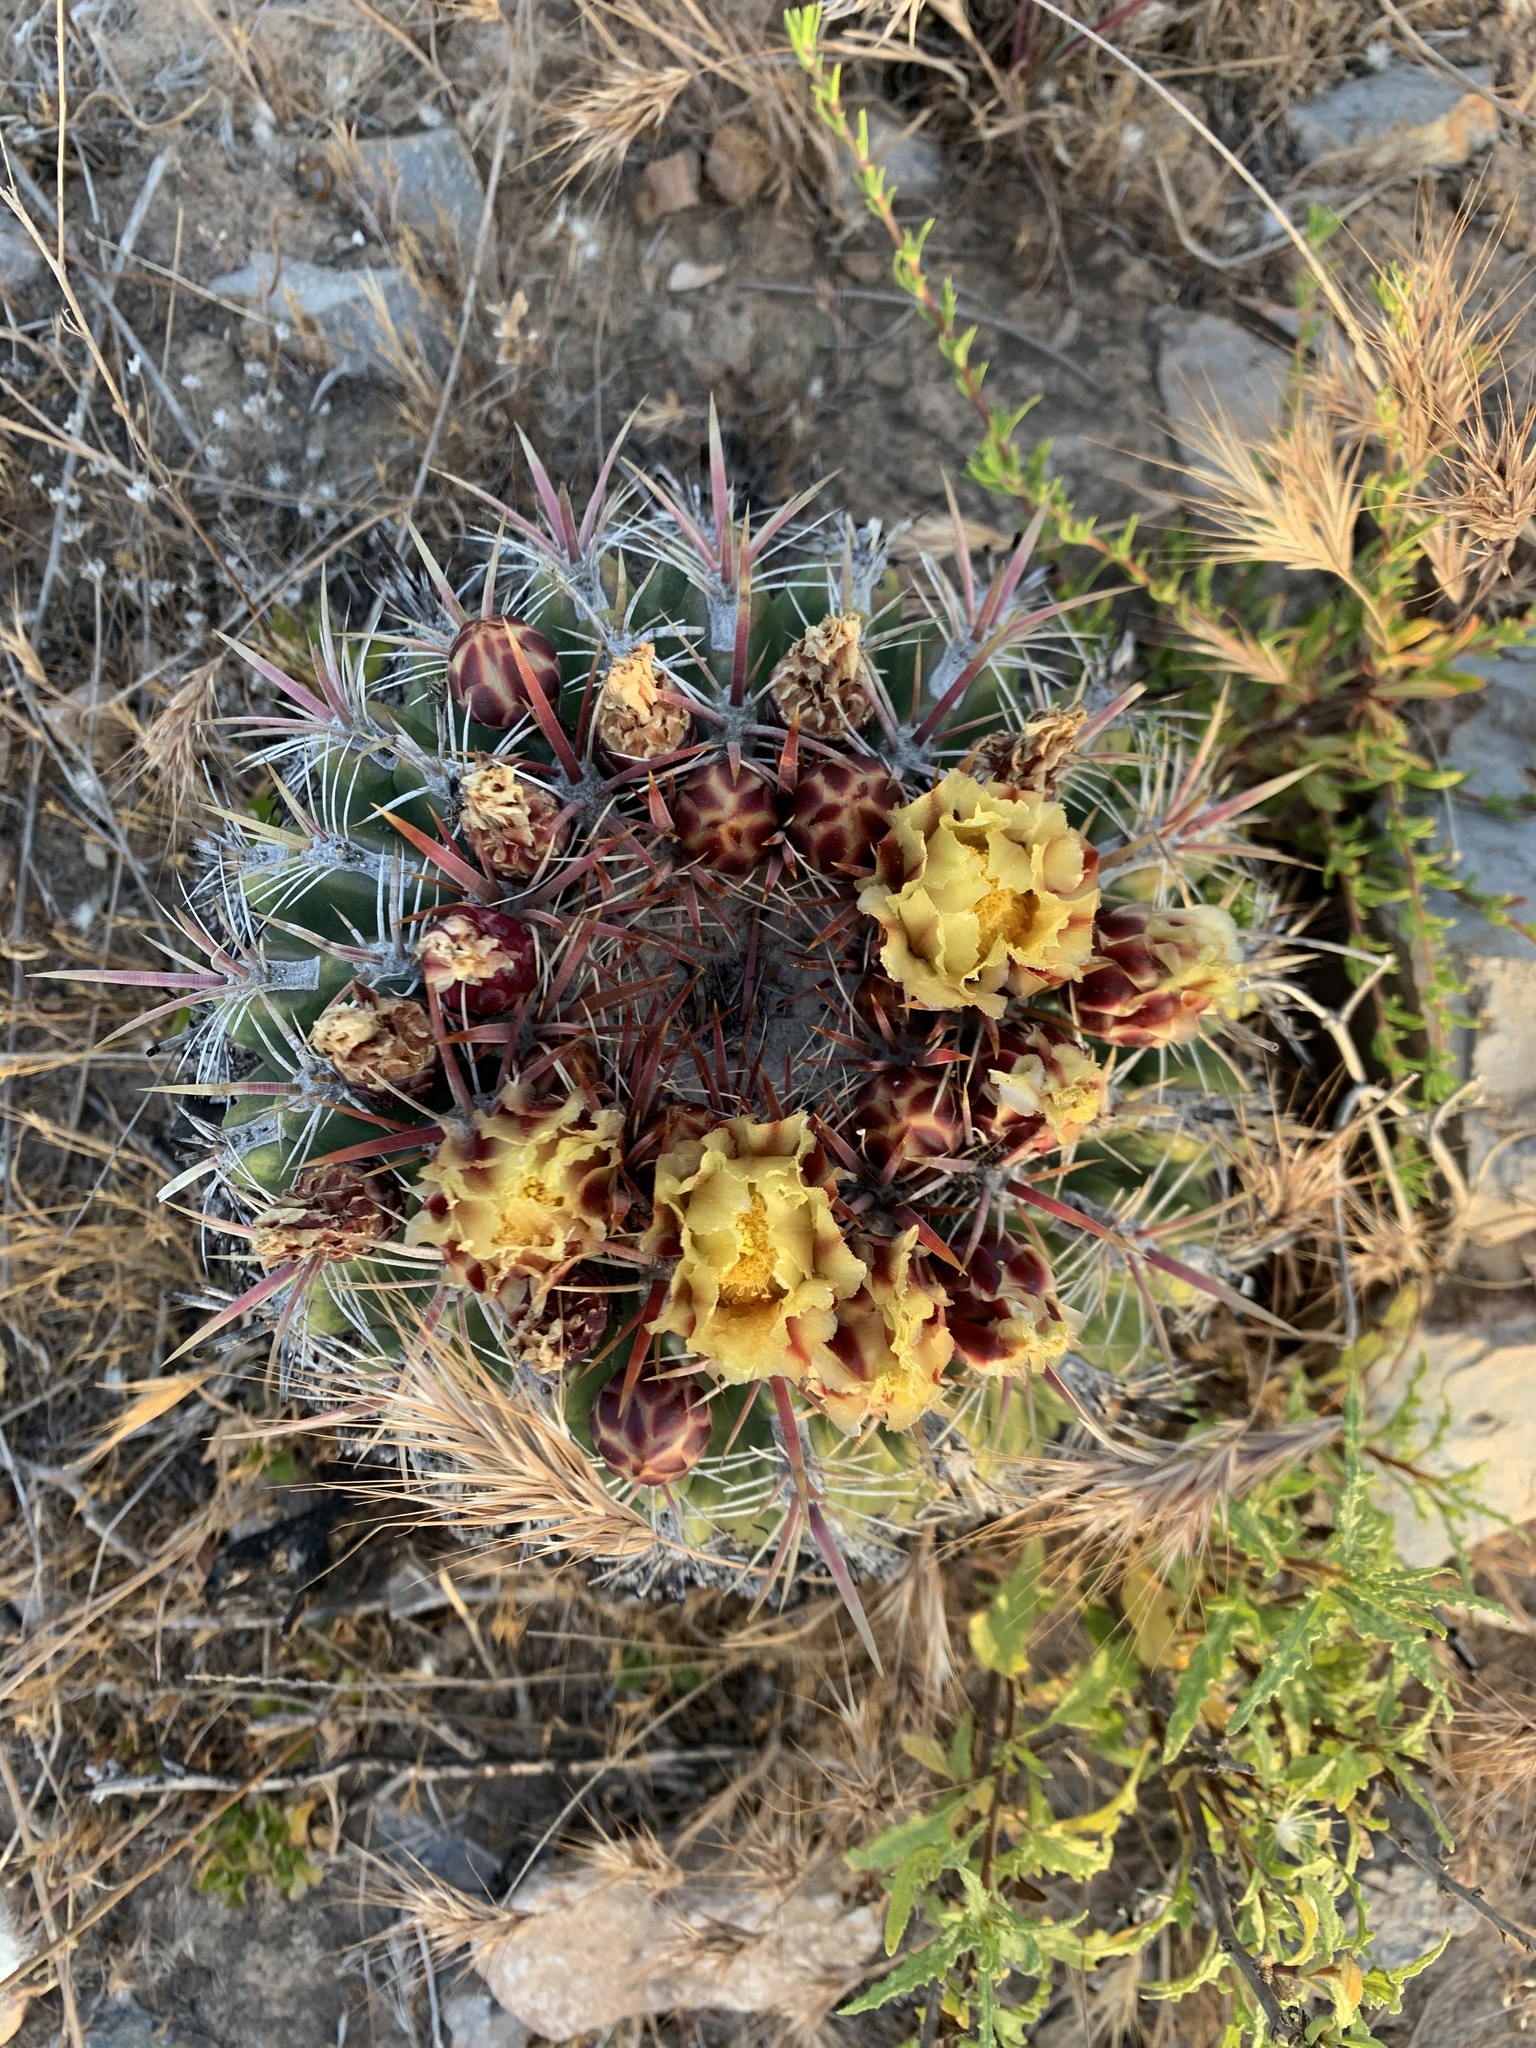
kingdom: Plantae
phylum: Tracheophyta
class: Magnoliopsida
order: Caryophyllales
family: Cactaceae
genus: Ferocactus
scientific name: Ferocactus viridescens
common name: San diego barrel cactus
